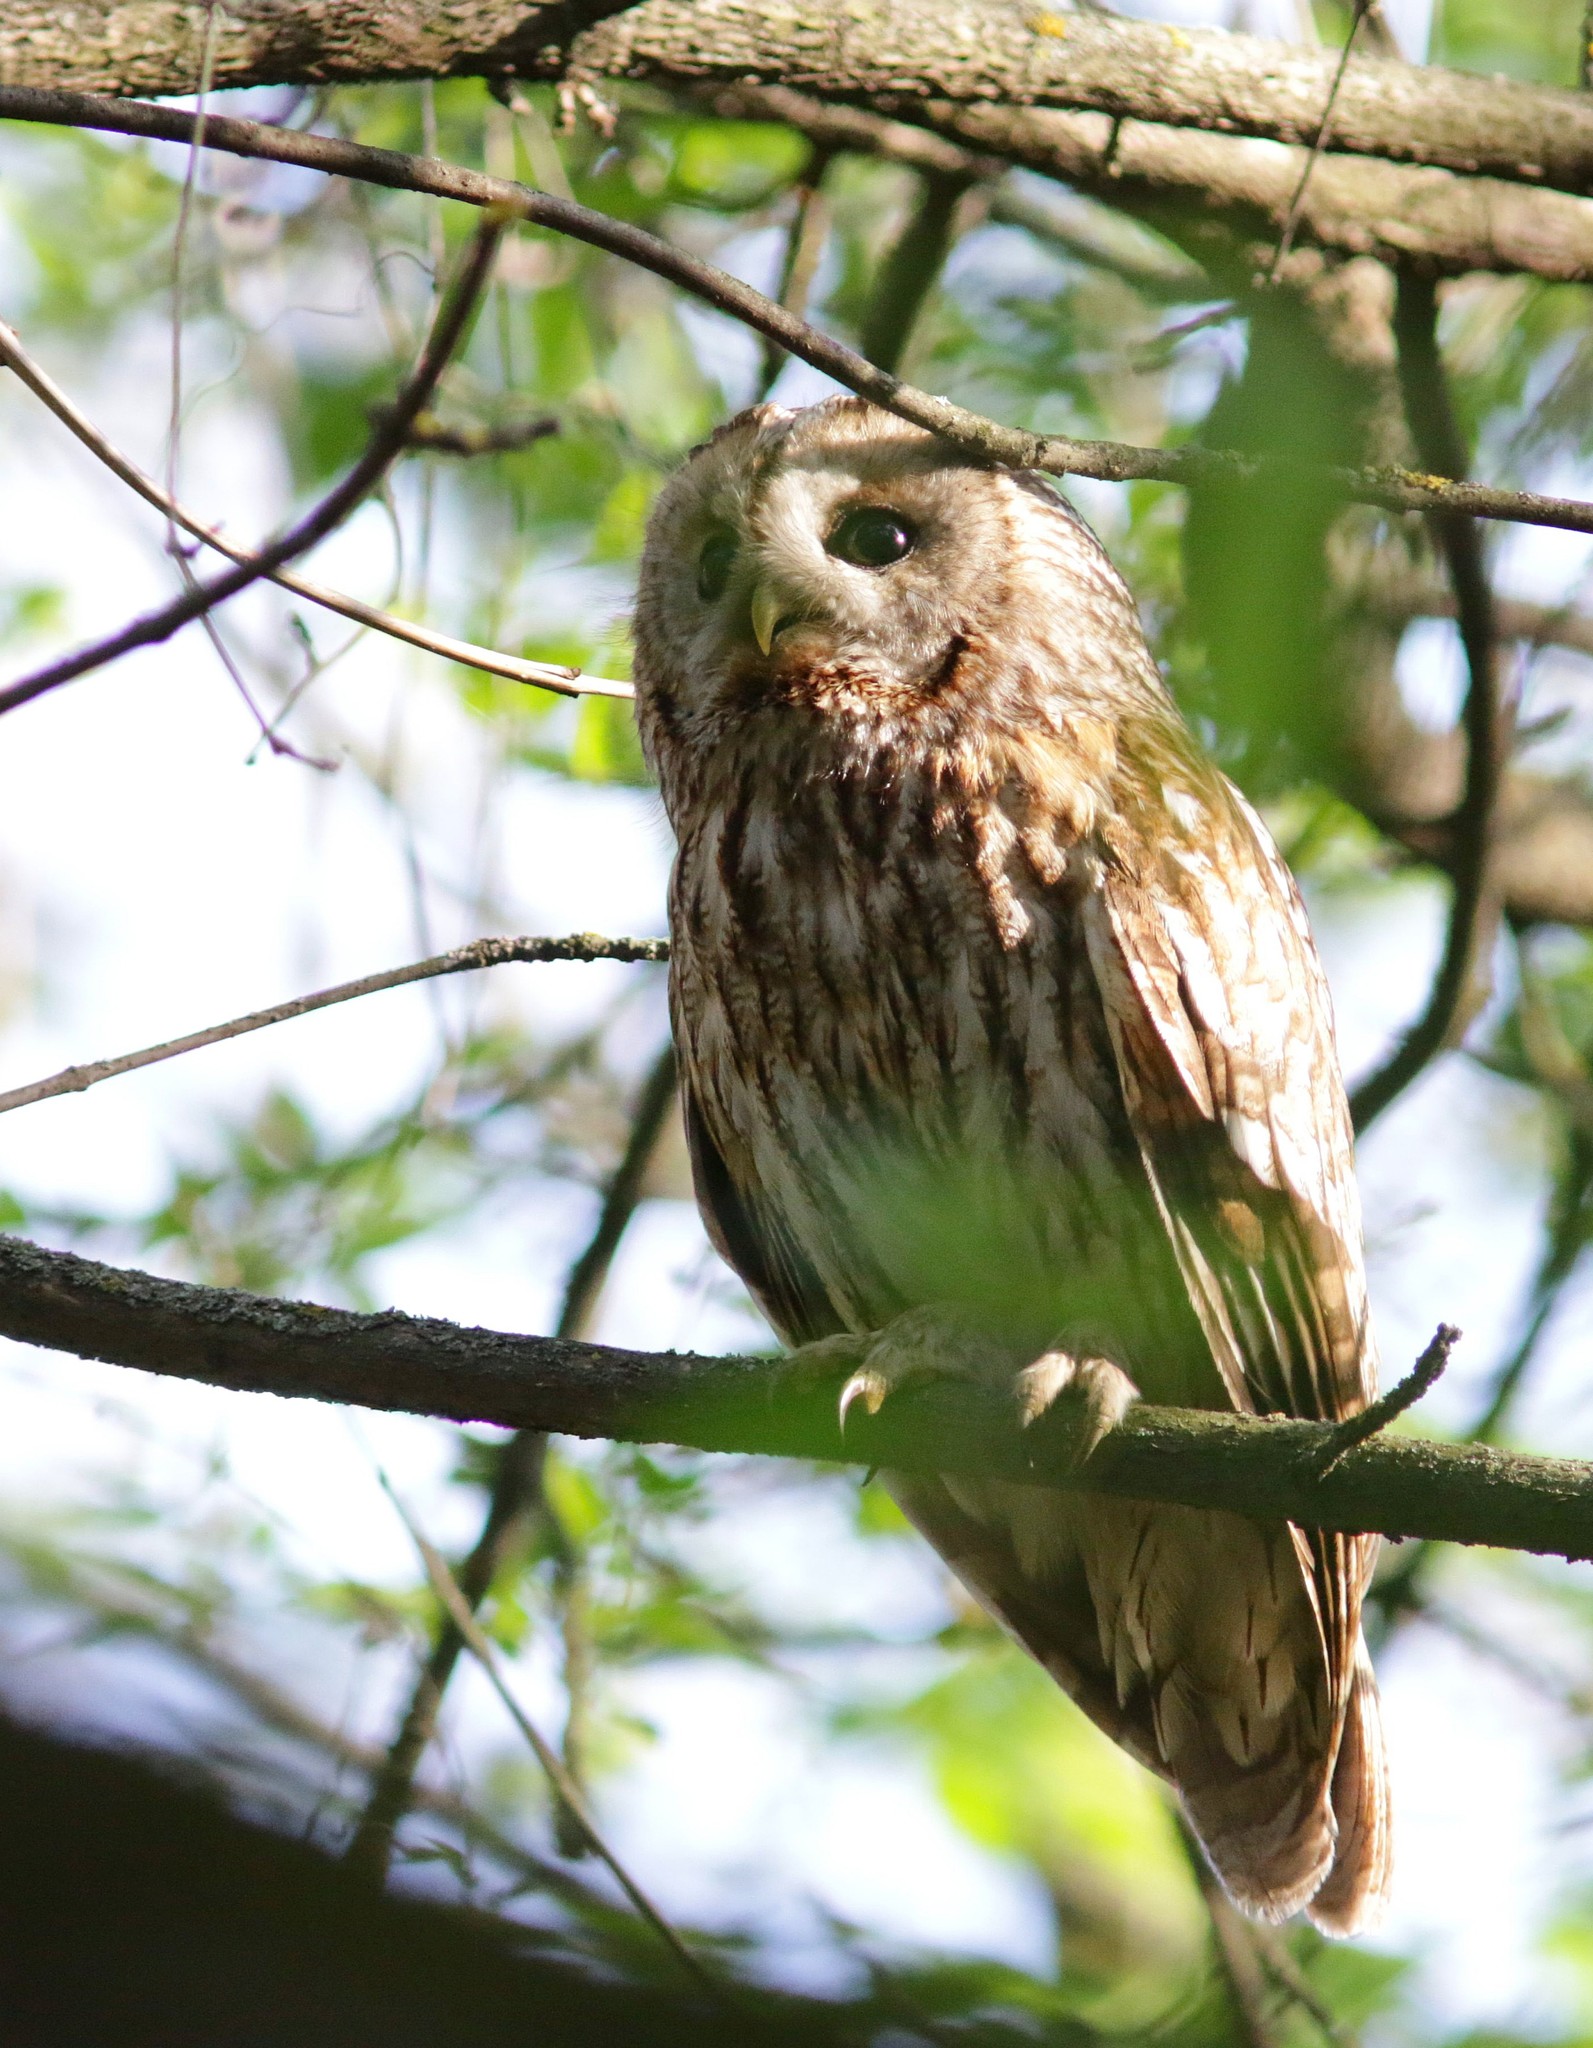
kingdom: Animalia
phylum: Chordata
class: Aves
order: Strigiformes
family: Strigidae
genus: Strix
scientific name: Strix aluco
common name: Tawny owl
